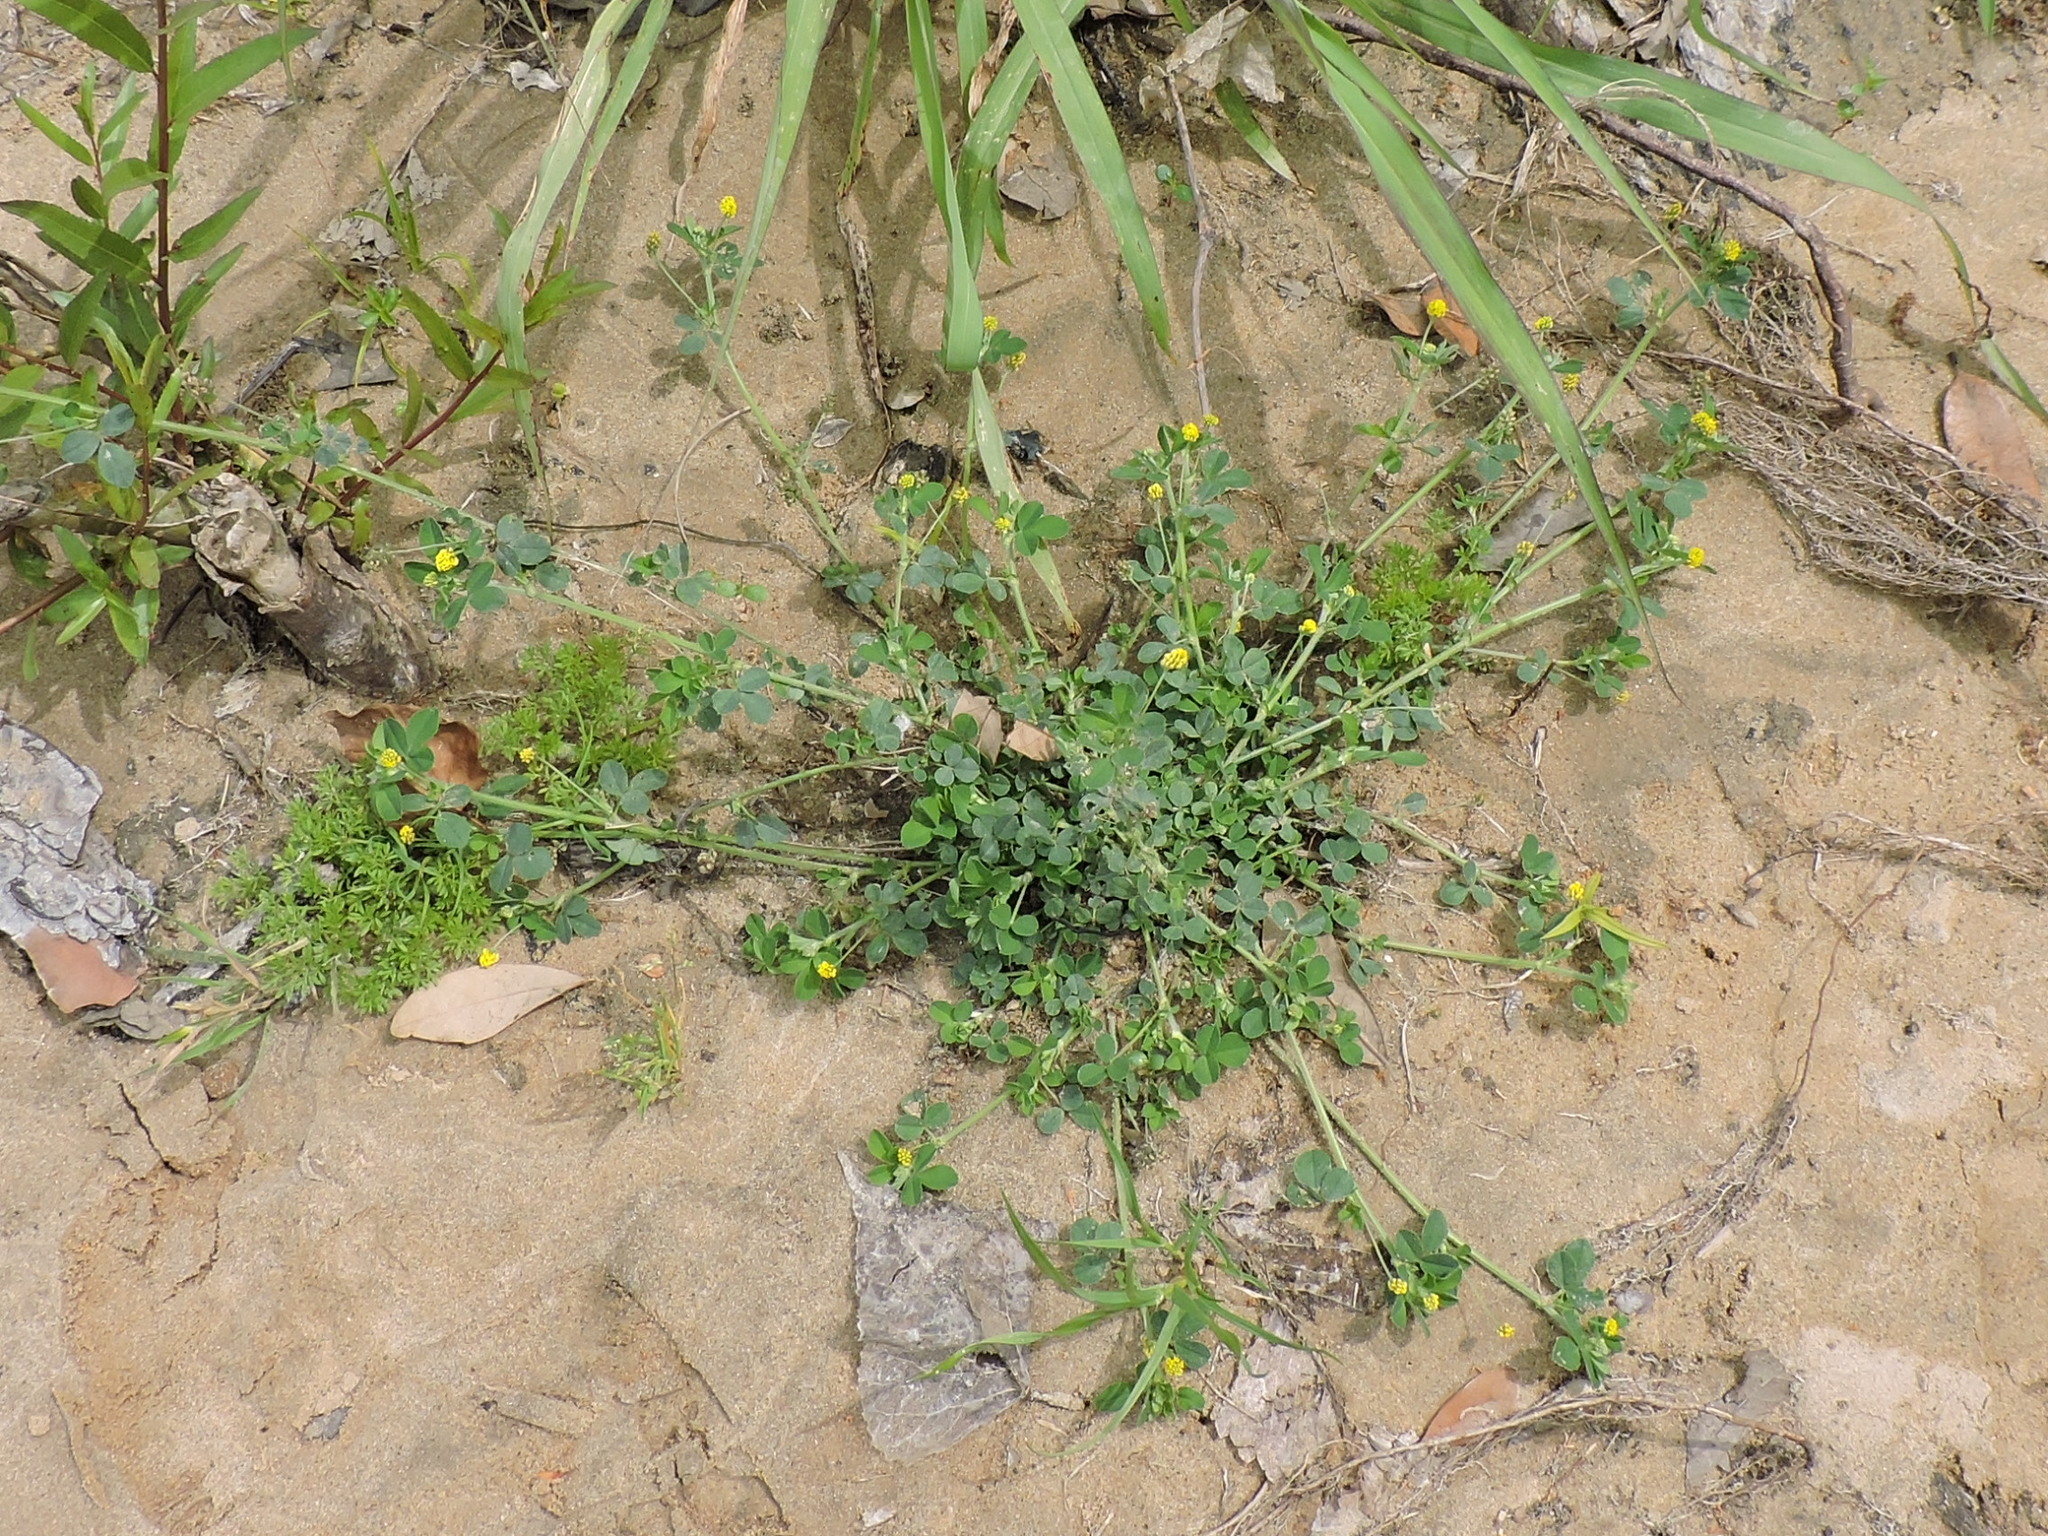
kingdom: Plantae
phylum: Tracheophyta
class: Magnoliopsida
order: Fabales
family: Fabaceae
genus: Medicago
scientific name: Medicago lupulina
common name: Black medick
